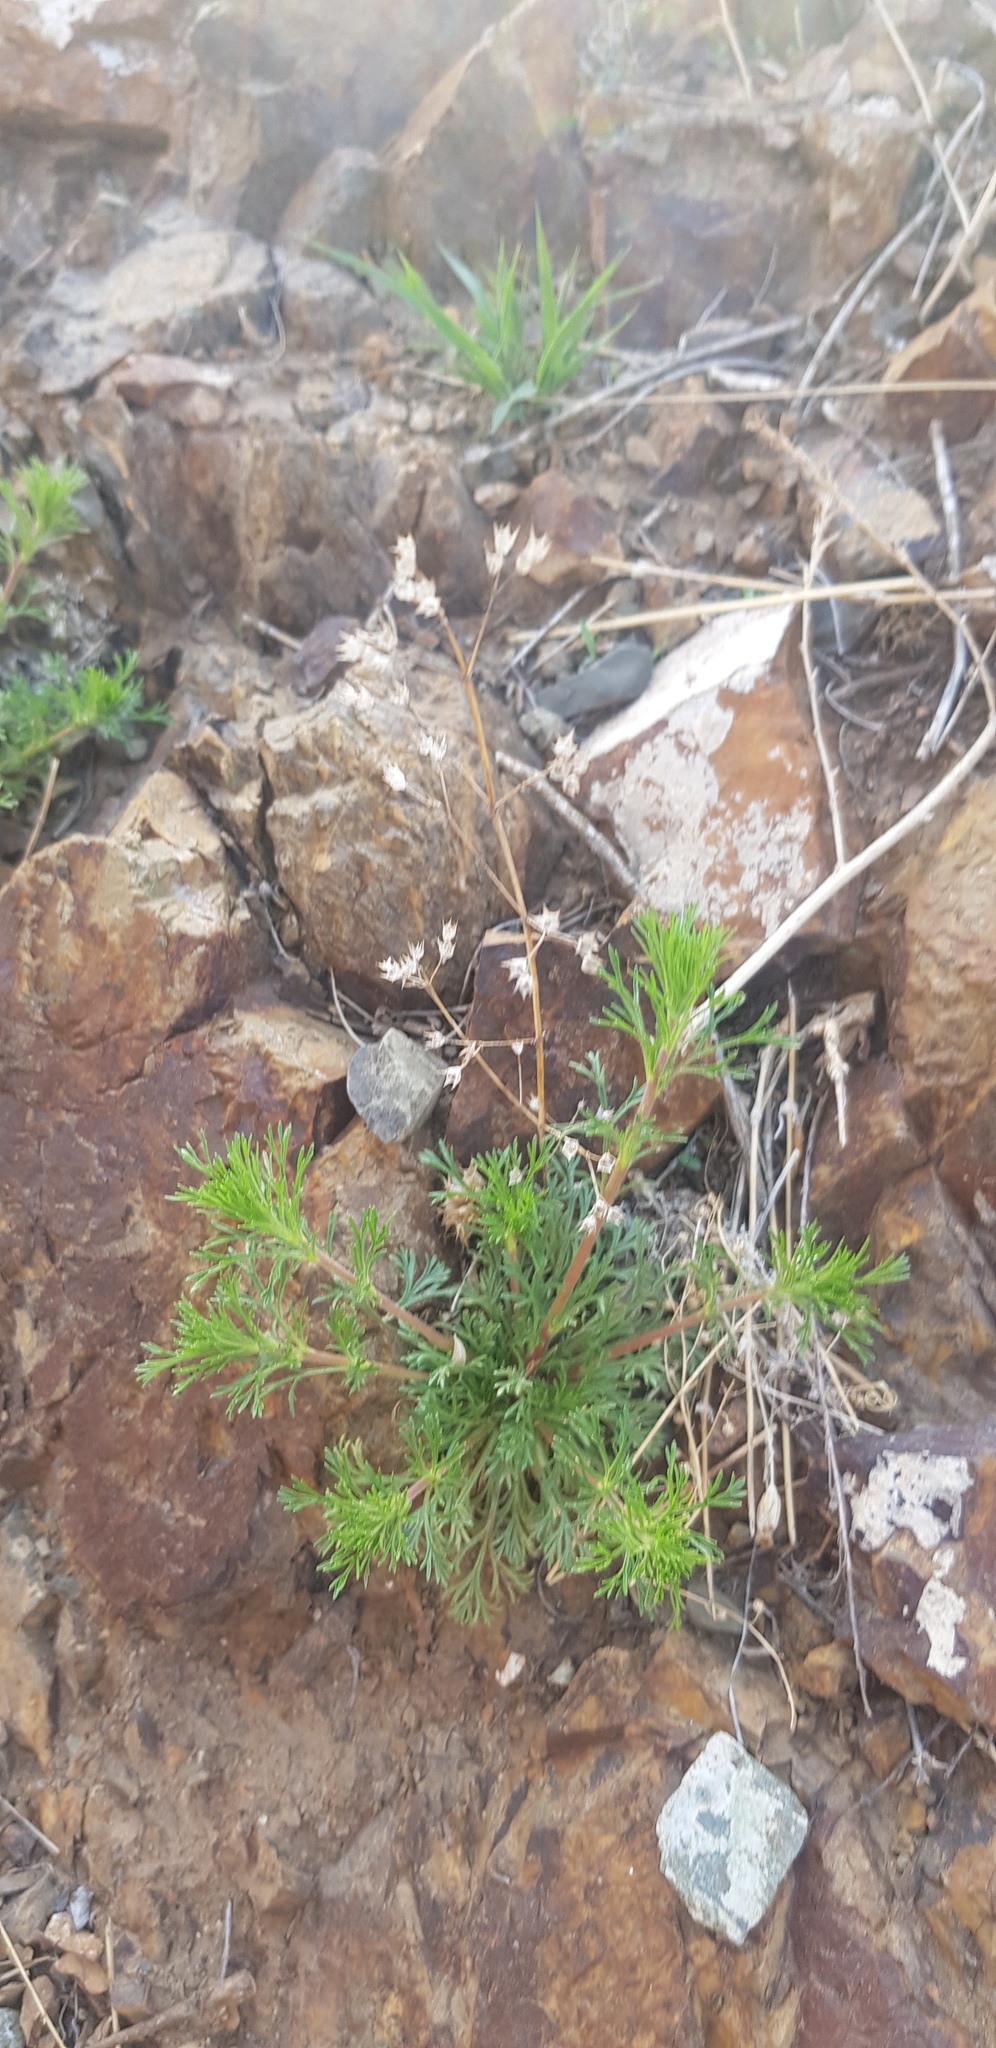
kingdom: Plantae
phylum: Tracheophyta
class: Magnoliopsida
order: Rosales
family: Rosaceae
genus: Chamaerhodos
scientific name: Chamaerhodos erecta
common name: American chamaerhodos
